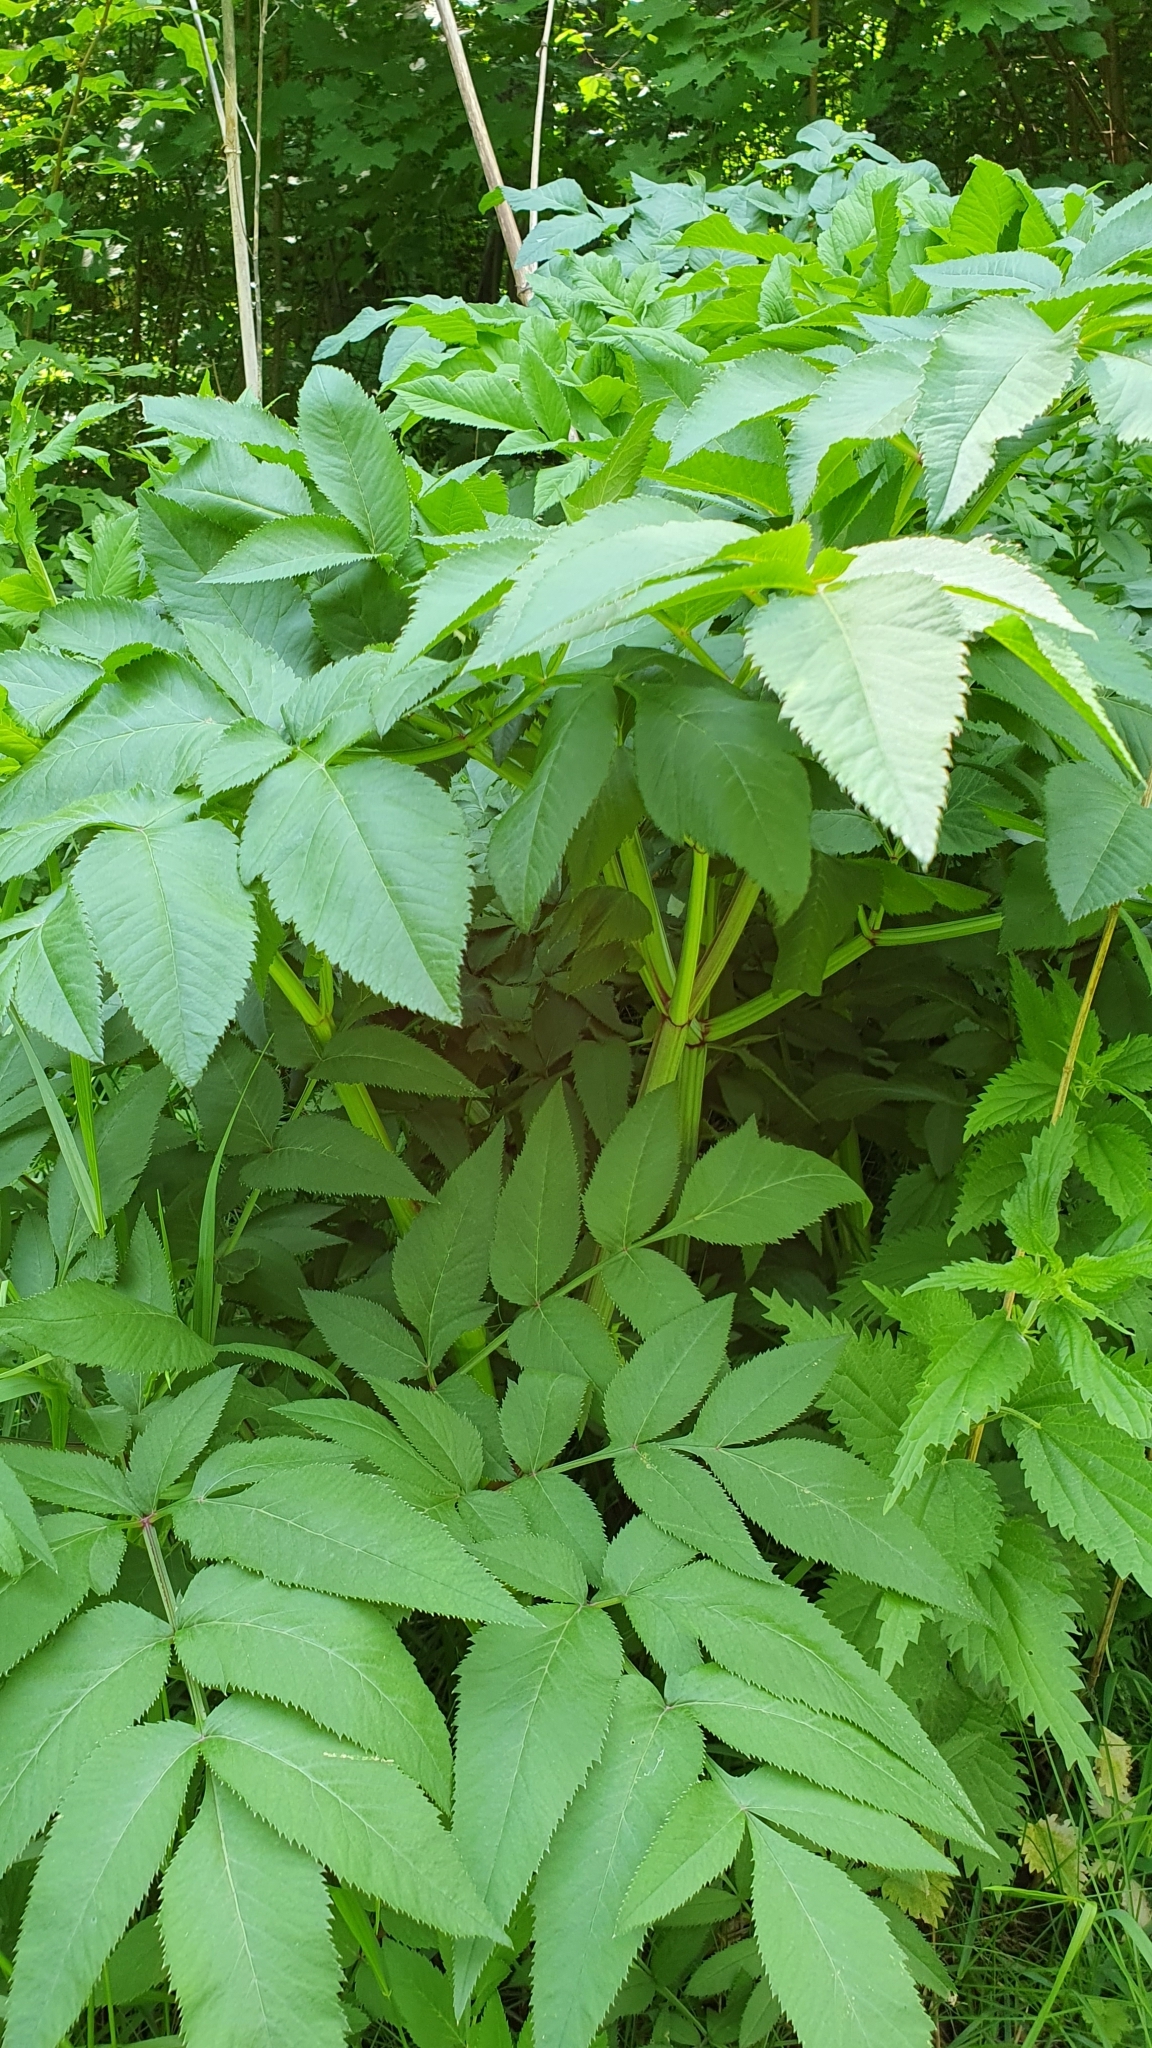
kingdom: Plantae
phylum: Tracheophyta
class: Magnoliopsida
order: Apiales
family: Apiaceae
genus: Angelica
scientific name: Angelica sylvestris
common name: Wild angelica
